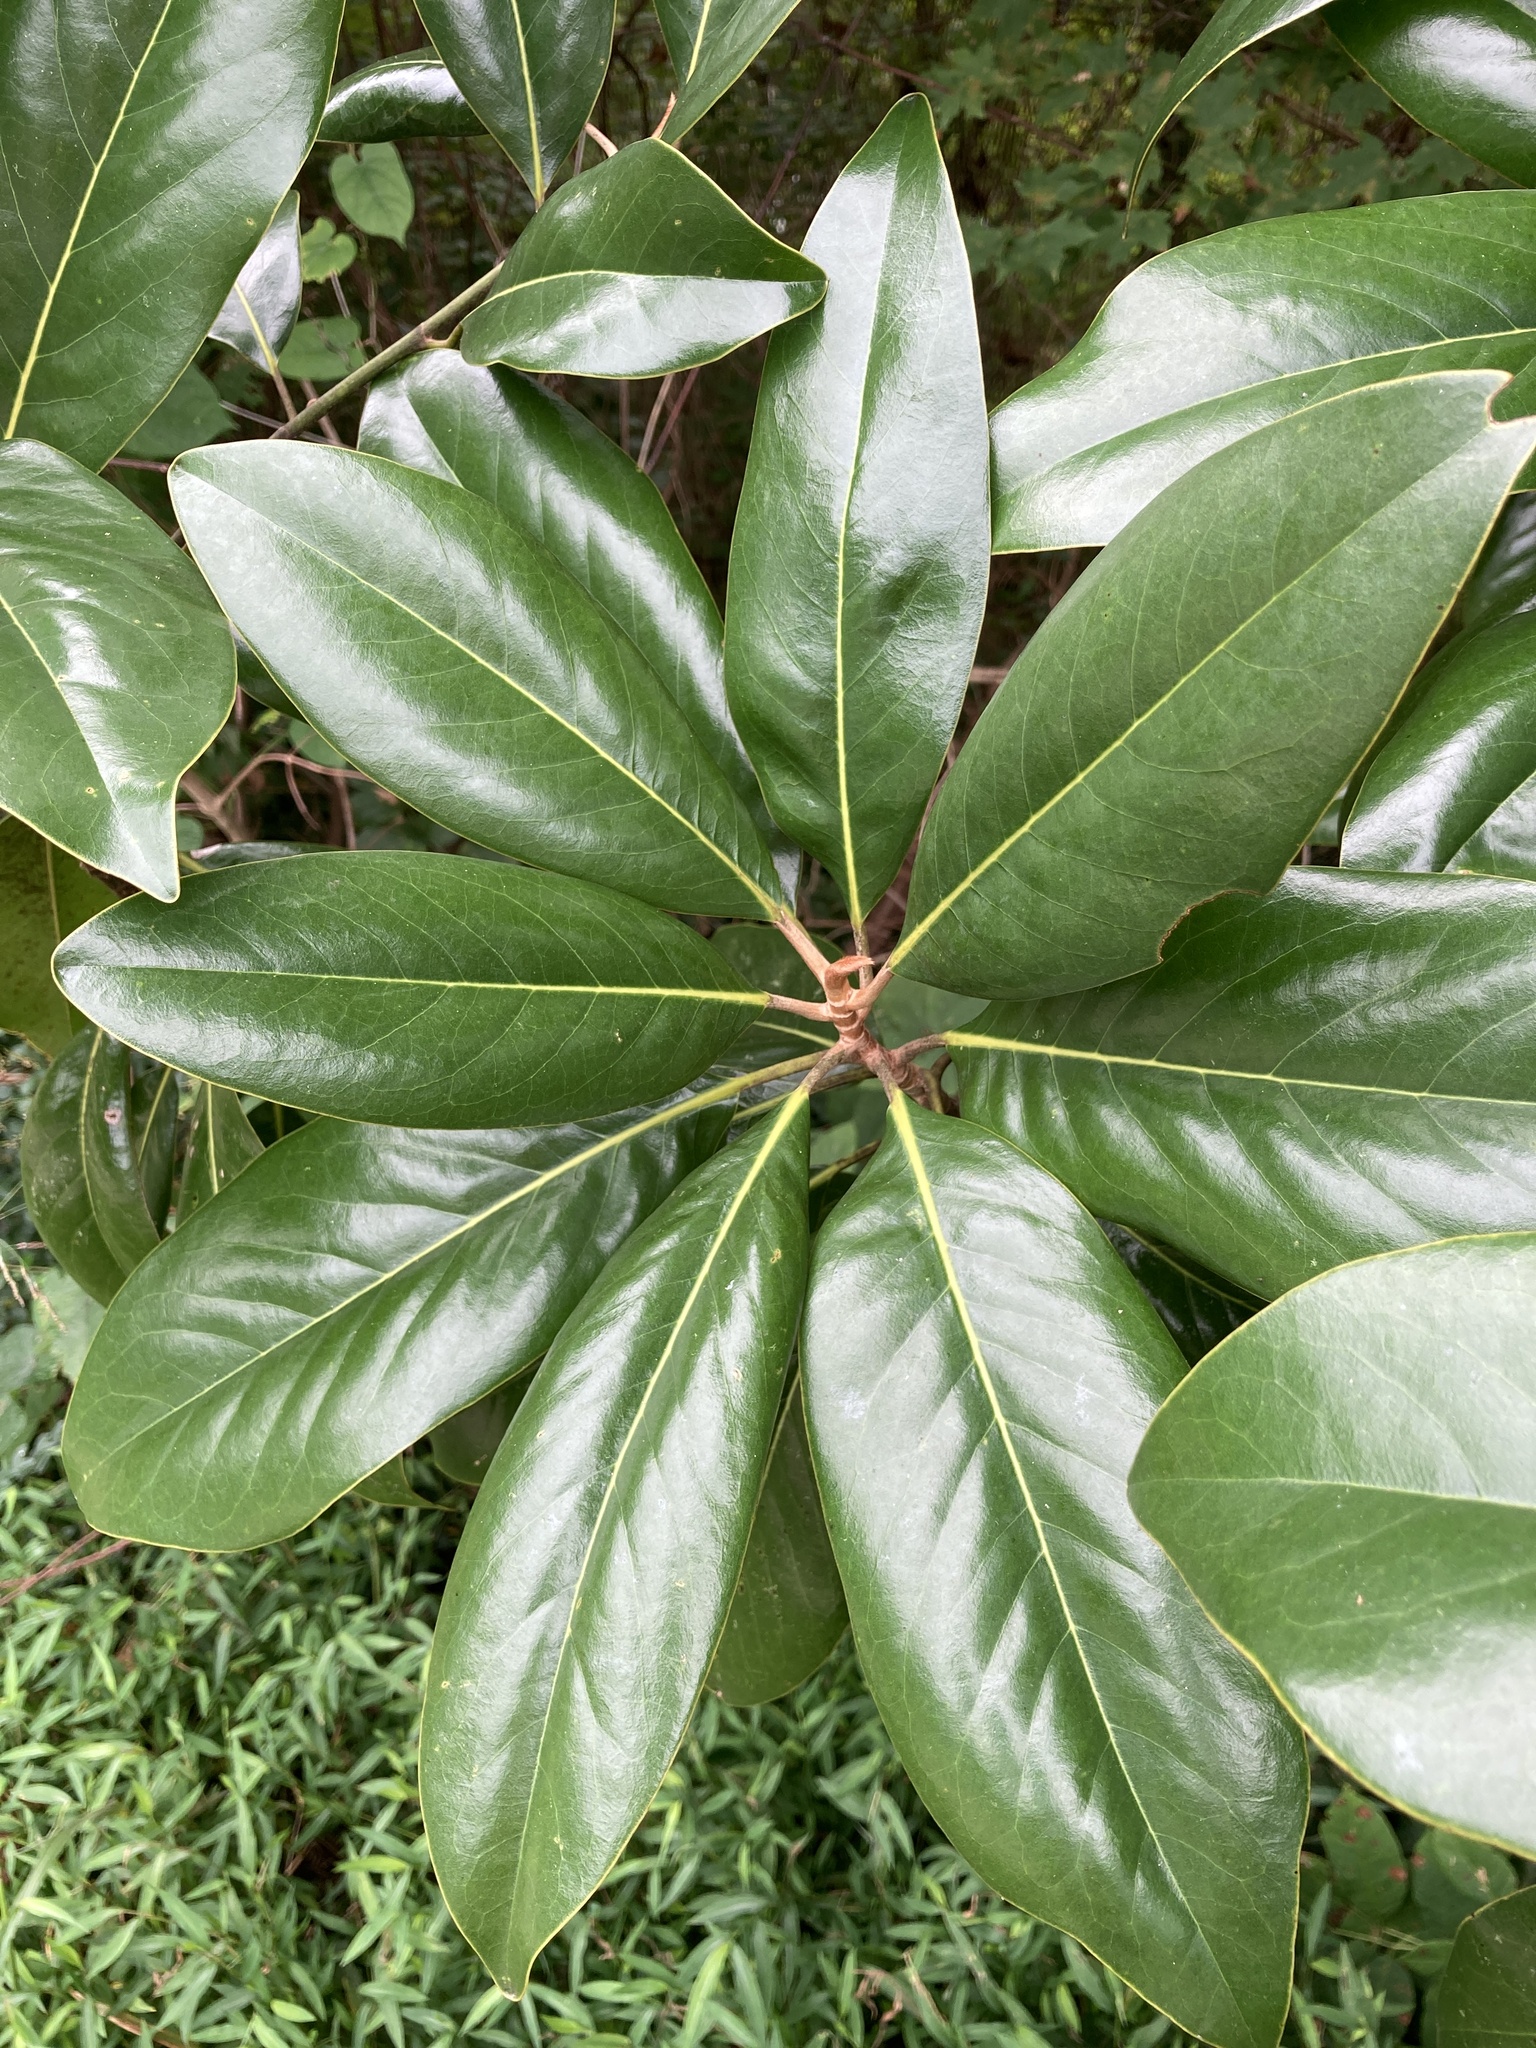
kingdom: Plantae
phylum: Tracheophyta
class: Magnoliopsida
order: Magnoliales
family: Magnoliaceae
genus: Magnolia
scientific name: Magnolia grandiflora
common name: Southern magnolia
